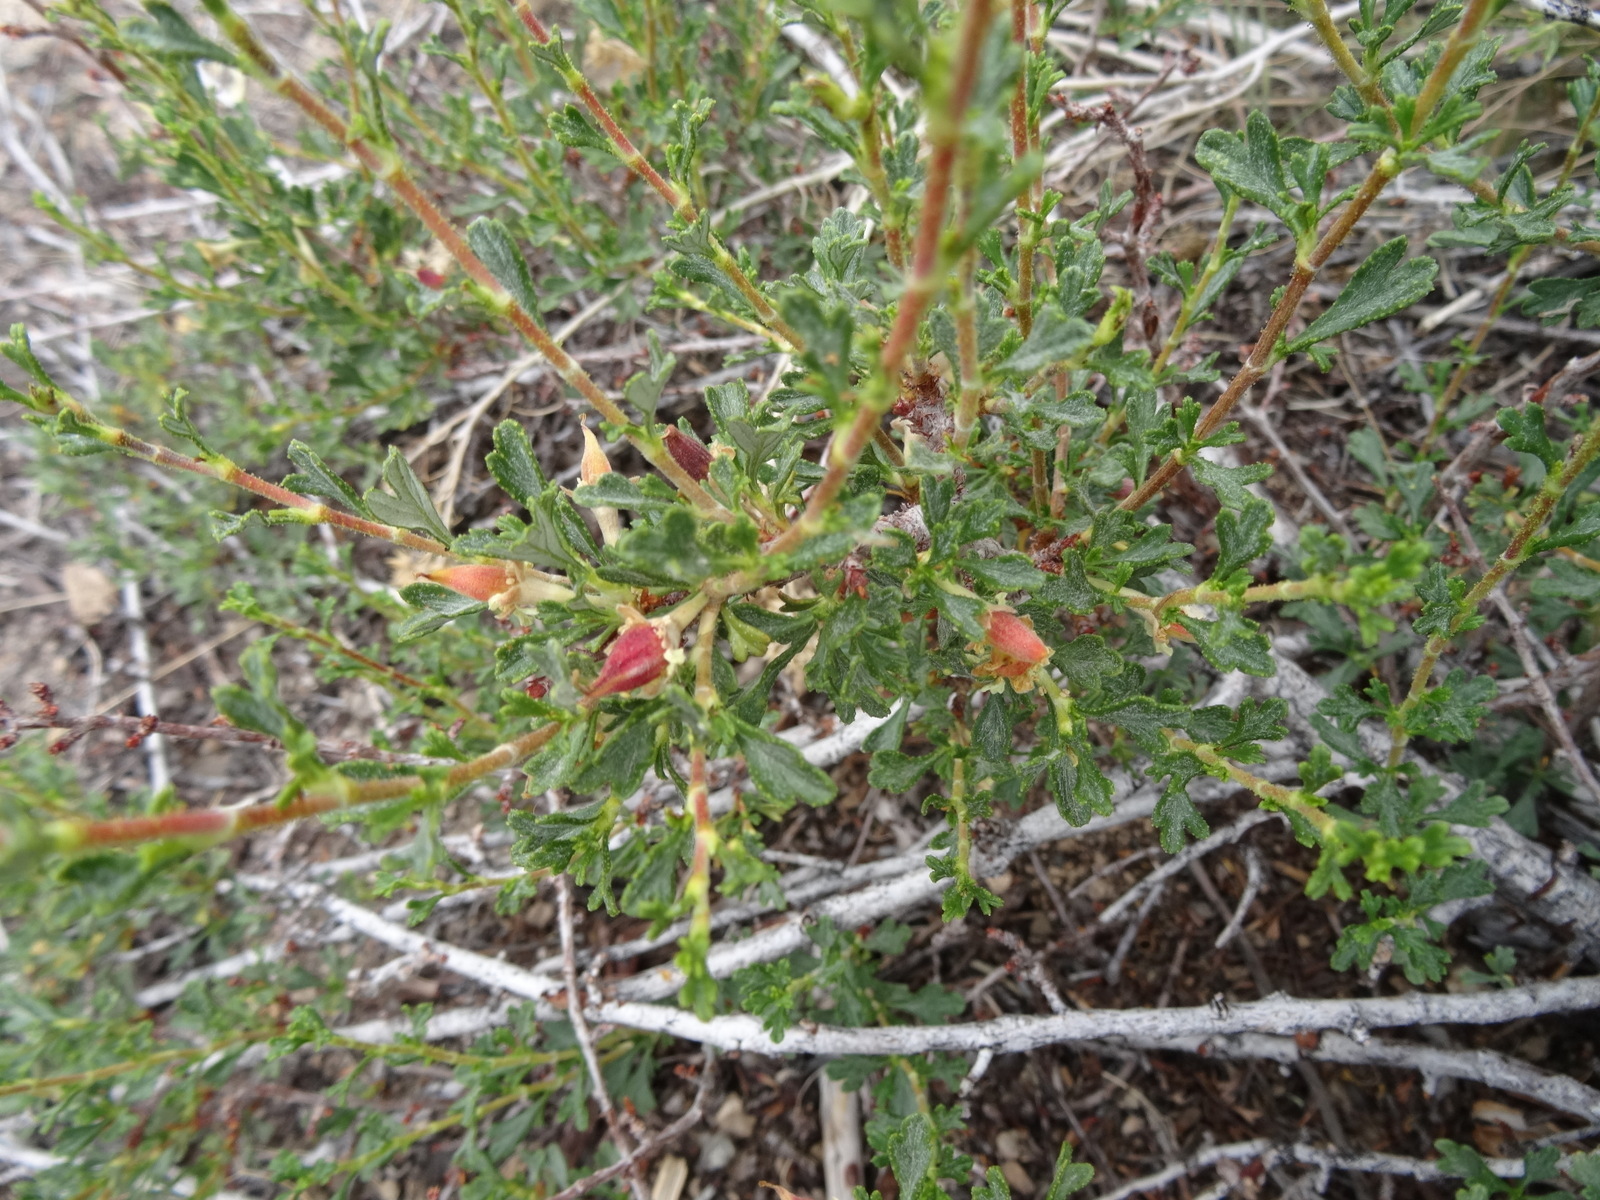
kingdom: Plantae
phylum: Tracheophyta
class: Magnoliopsida
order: Rosales
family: Rosaceae
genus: Purshia
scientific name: Purshia tridentata
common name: Antelope bitterbrush
